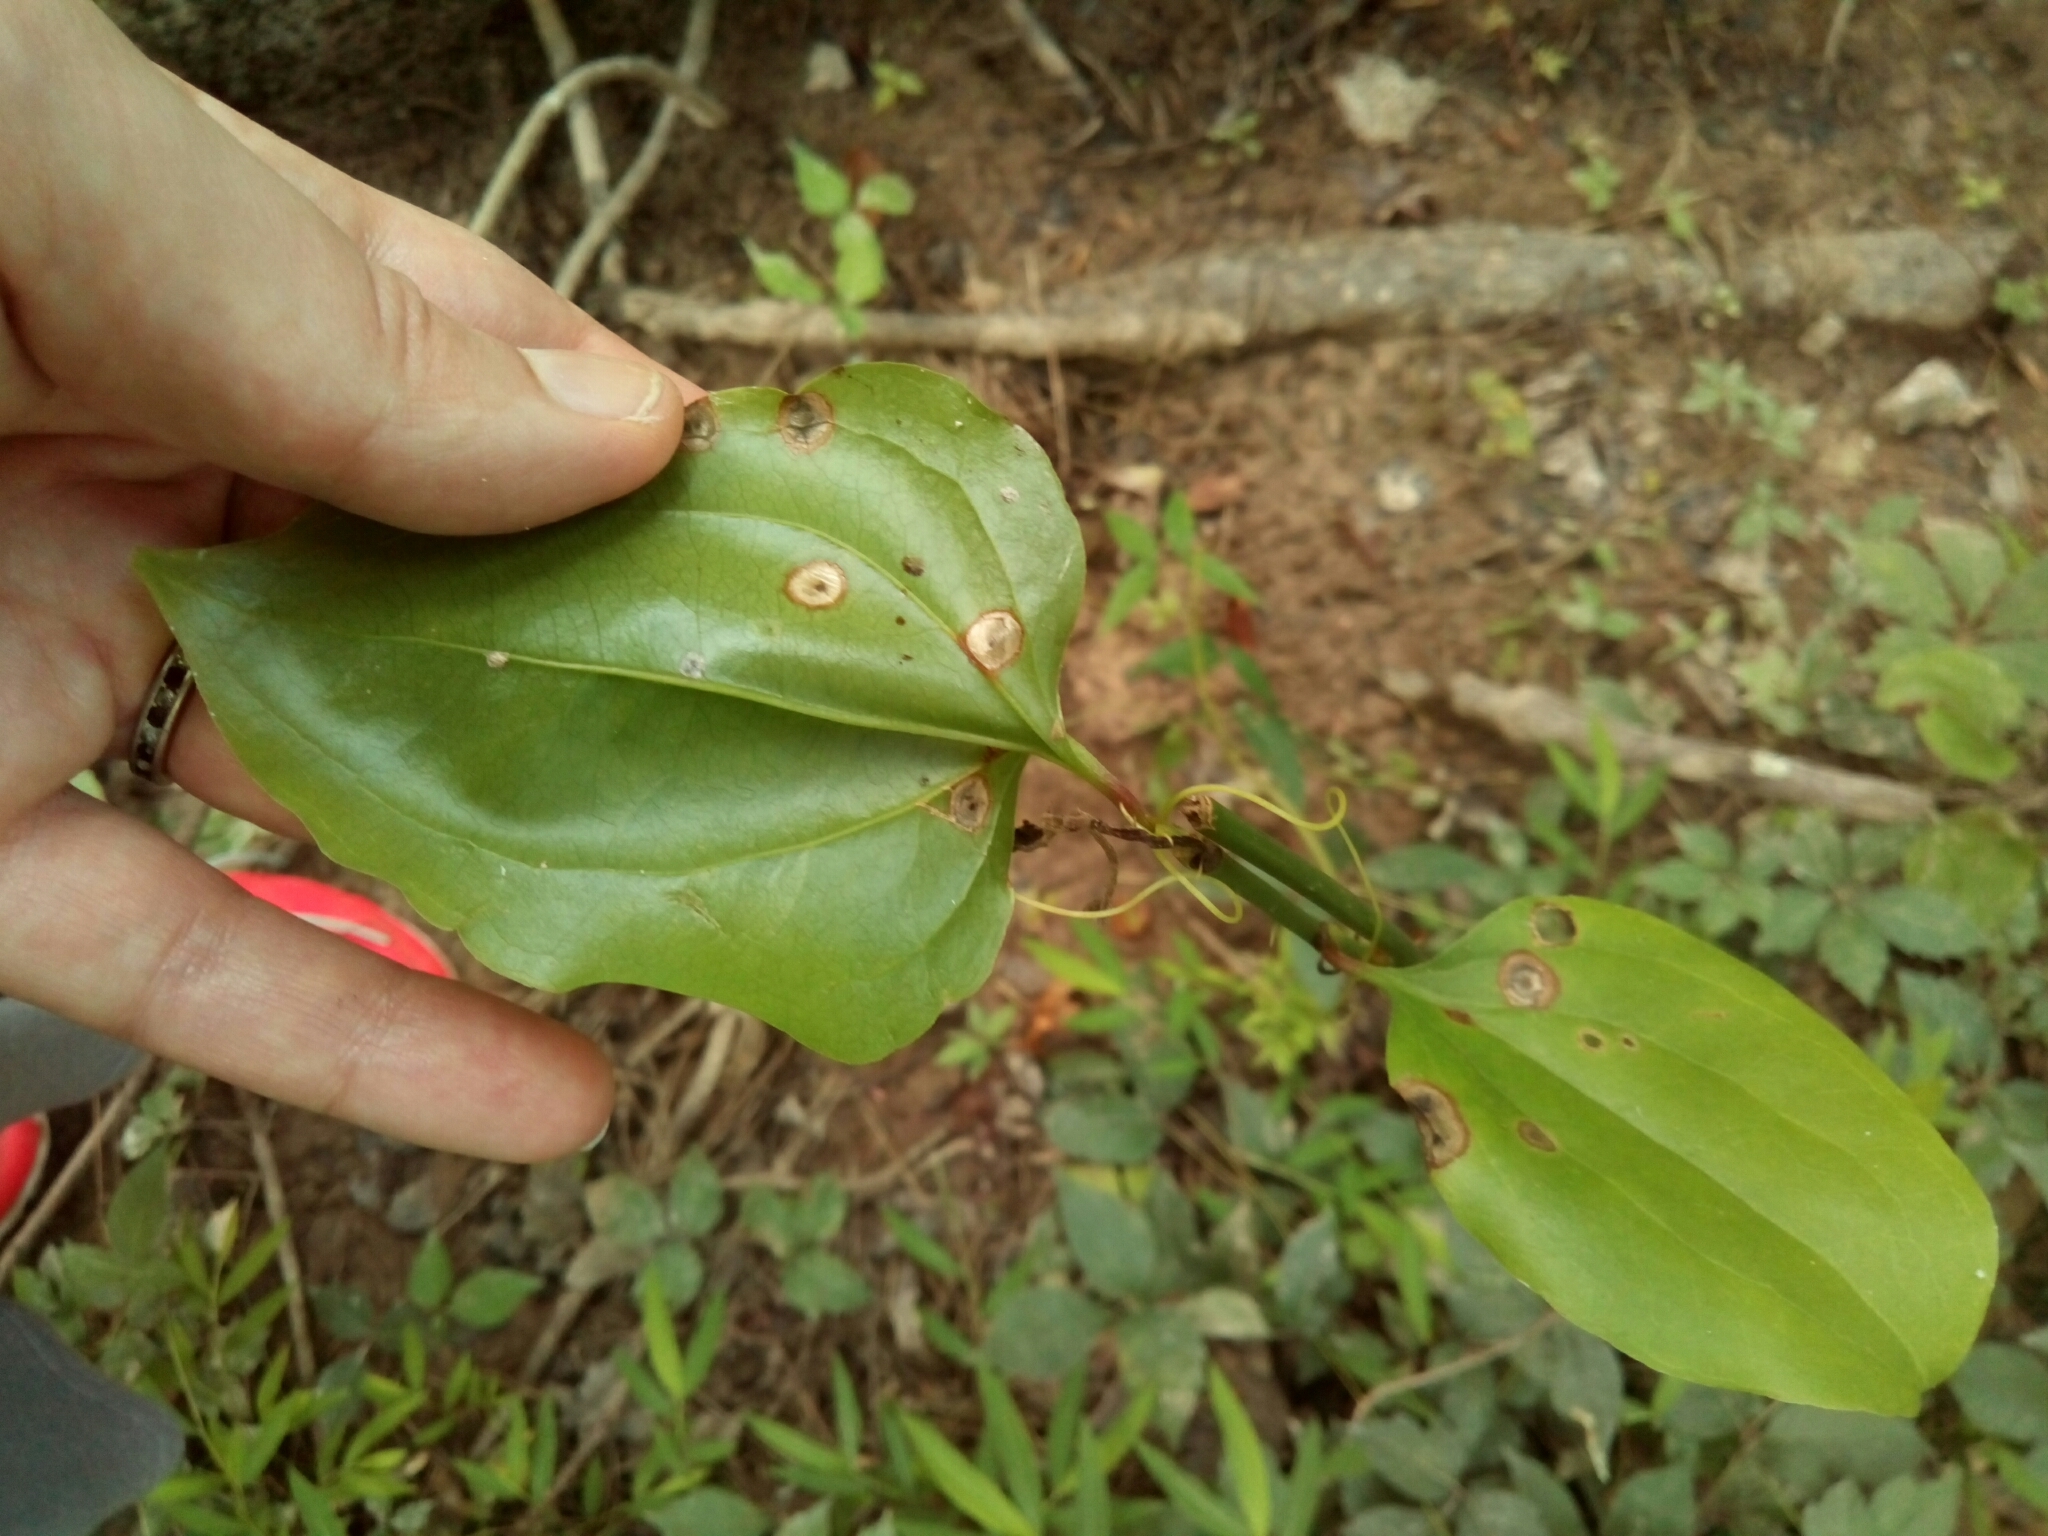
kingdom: Plantae
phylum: Tracheophyta
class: Liliopsida
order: Liliales
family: Smilacaceae
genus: Smilax
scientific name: Smilax rotundifolia
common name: Bullbriar
